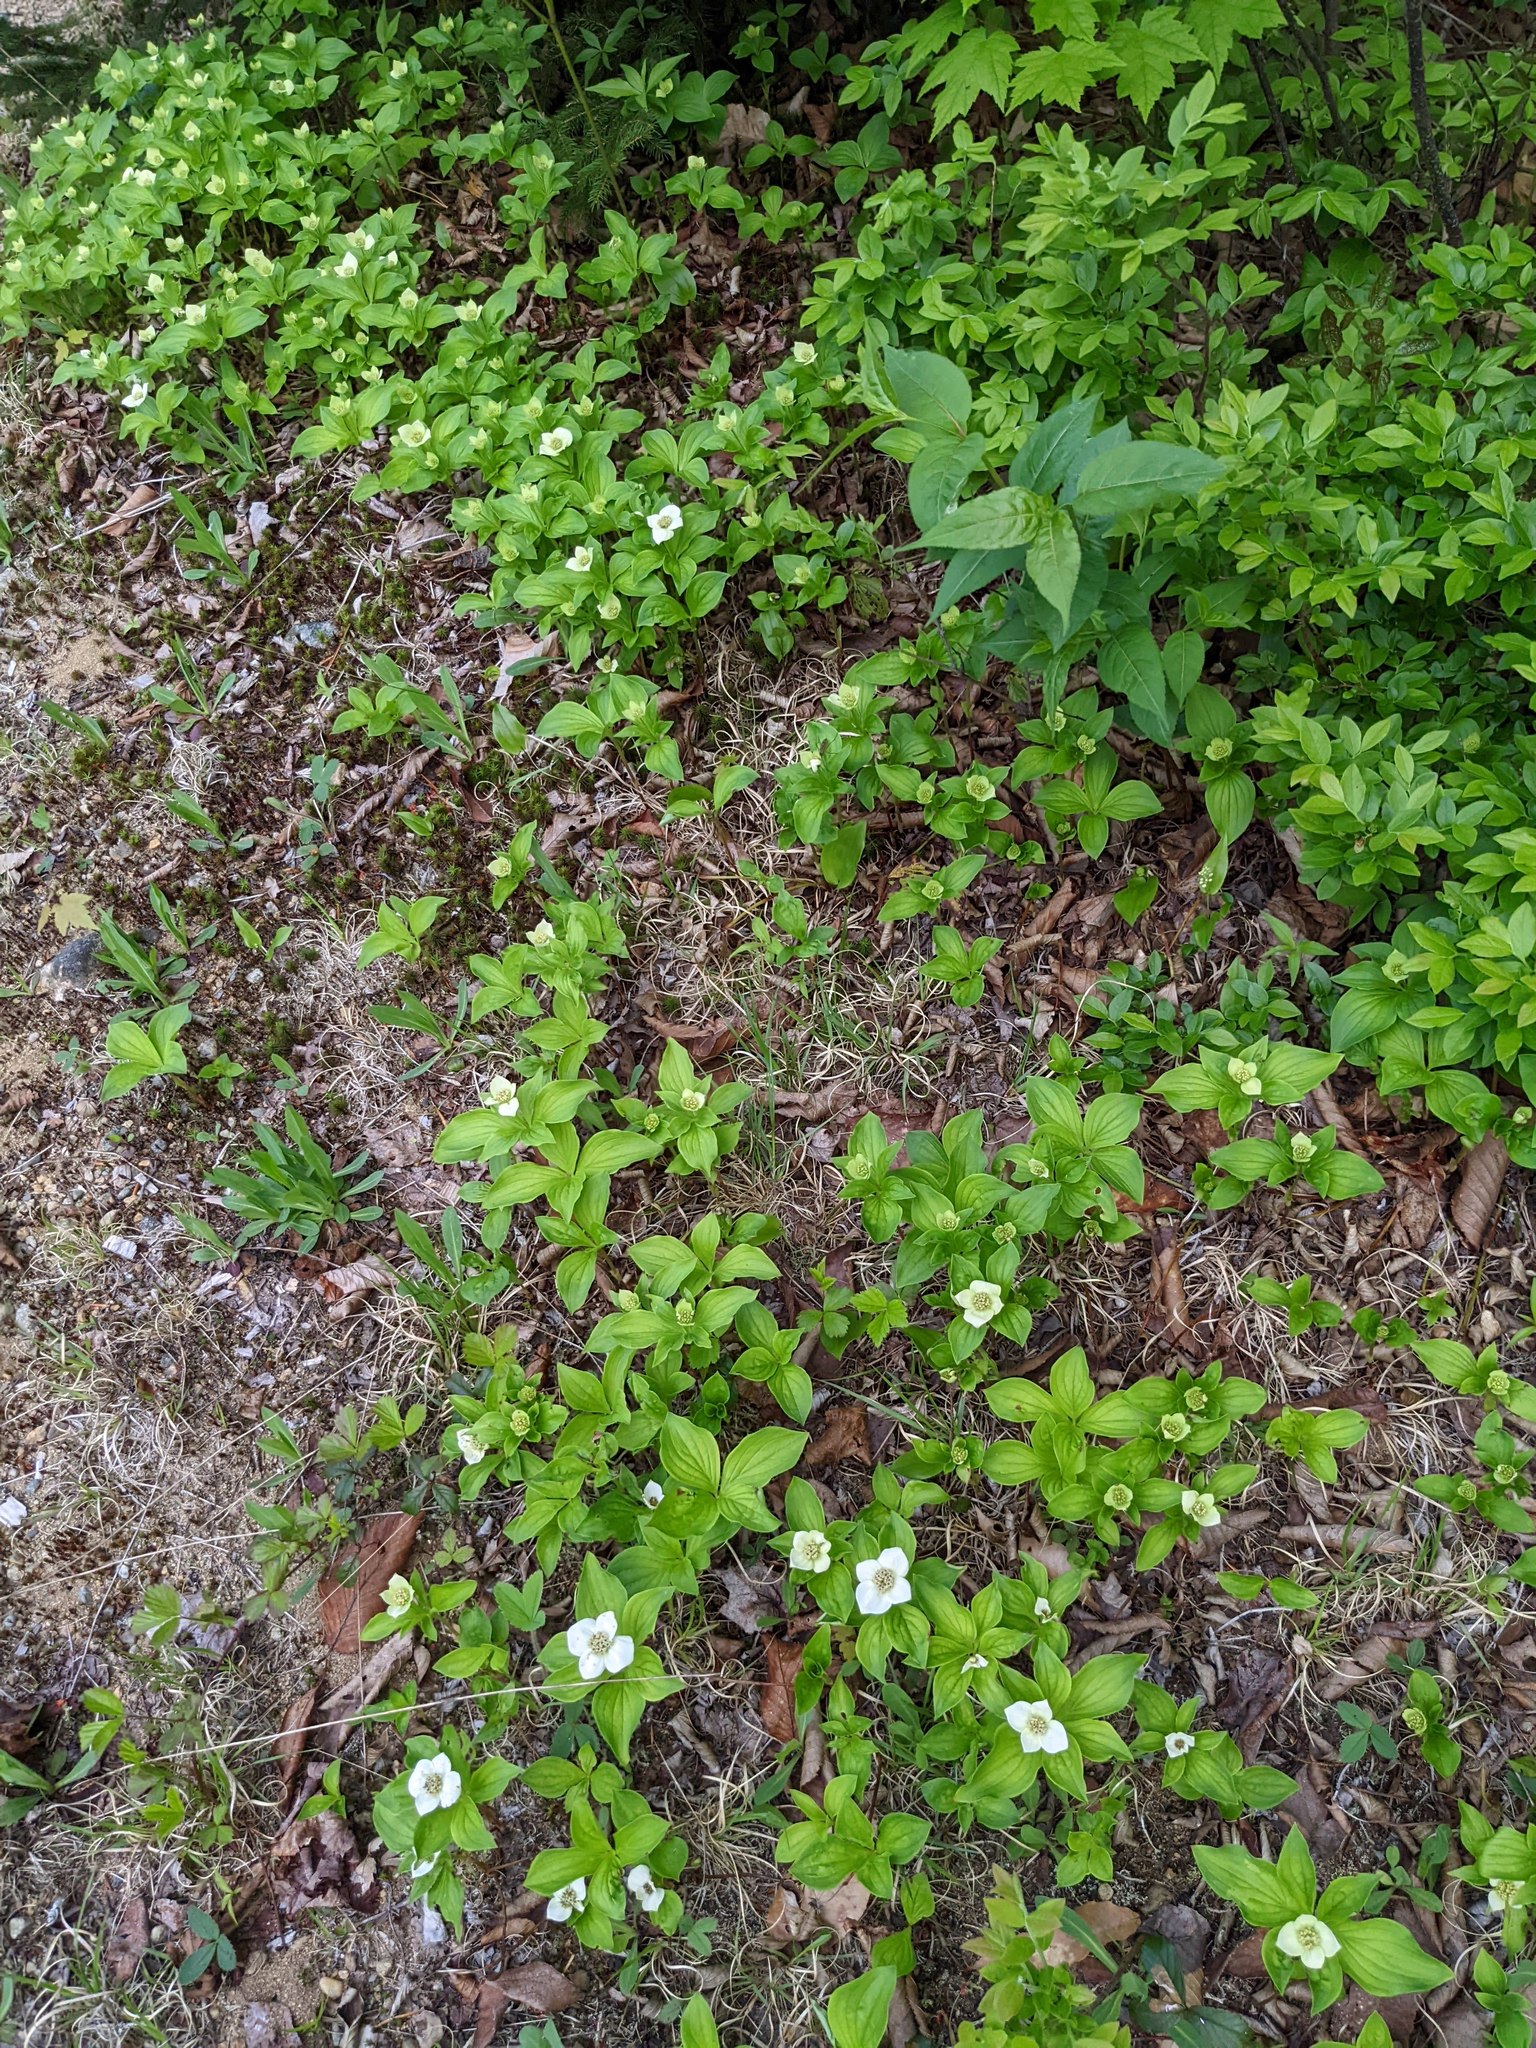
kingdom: Plantae
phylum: Tracheophyta
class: Magnoliopsida
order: Cornales
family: Cornaceae
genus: Cornus
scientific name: Cornus canadensis
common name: Creeping dogwood
